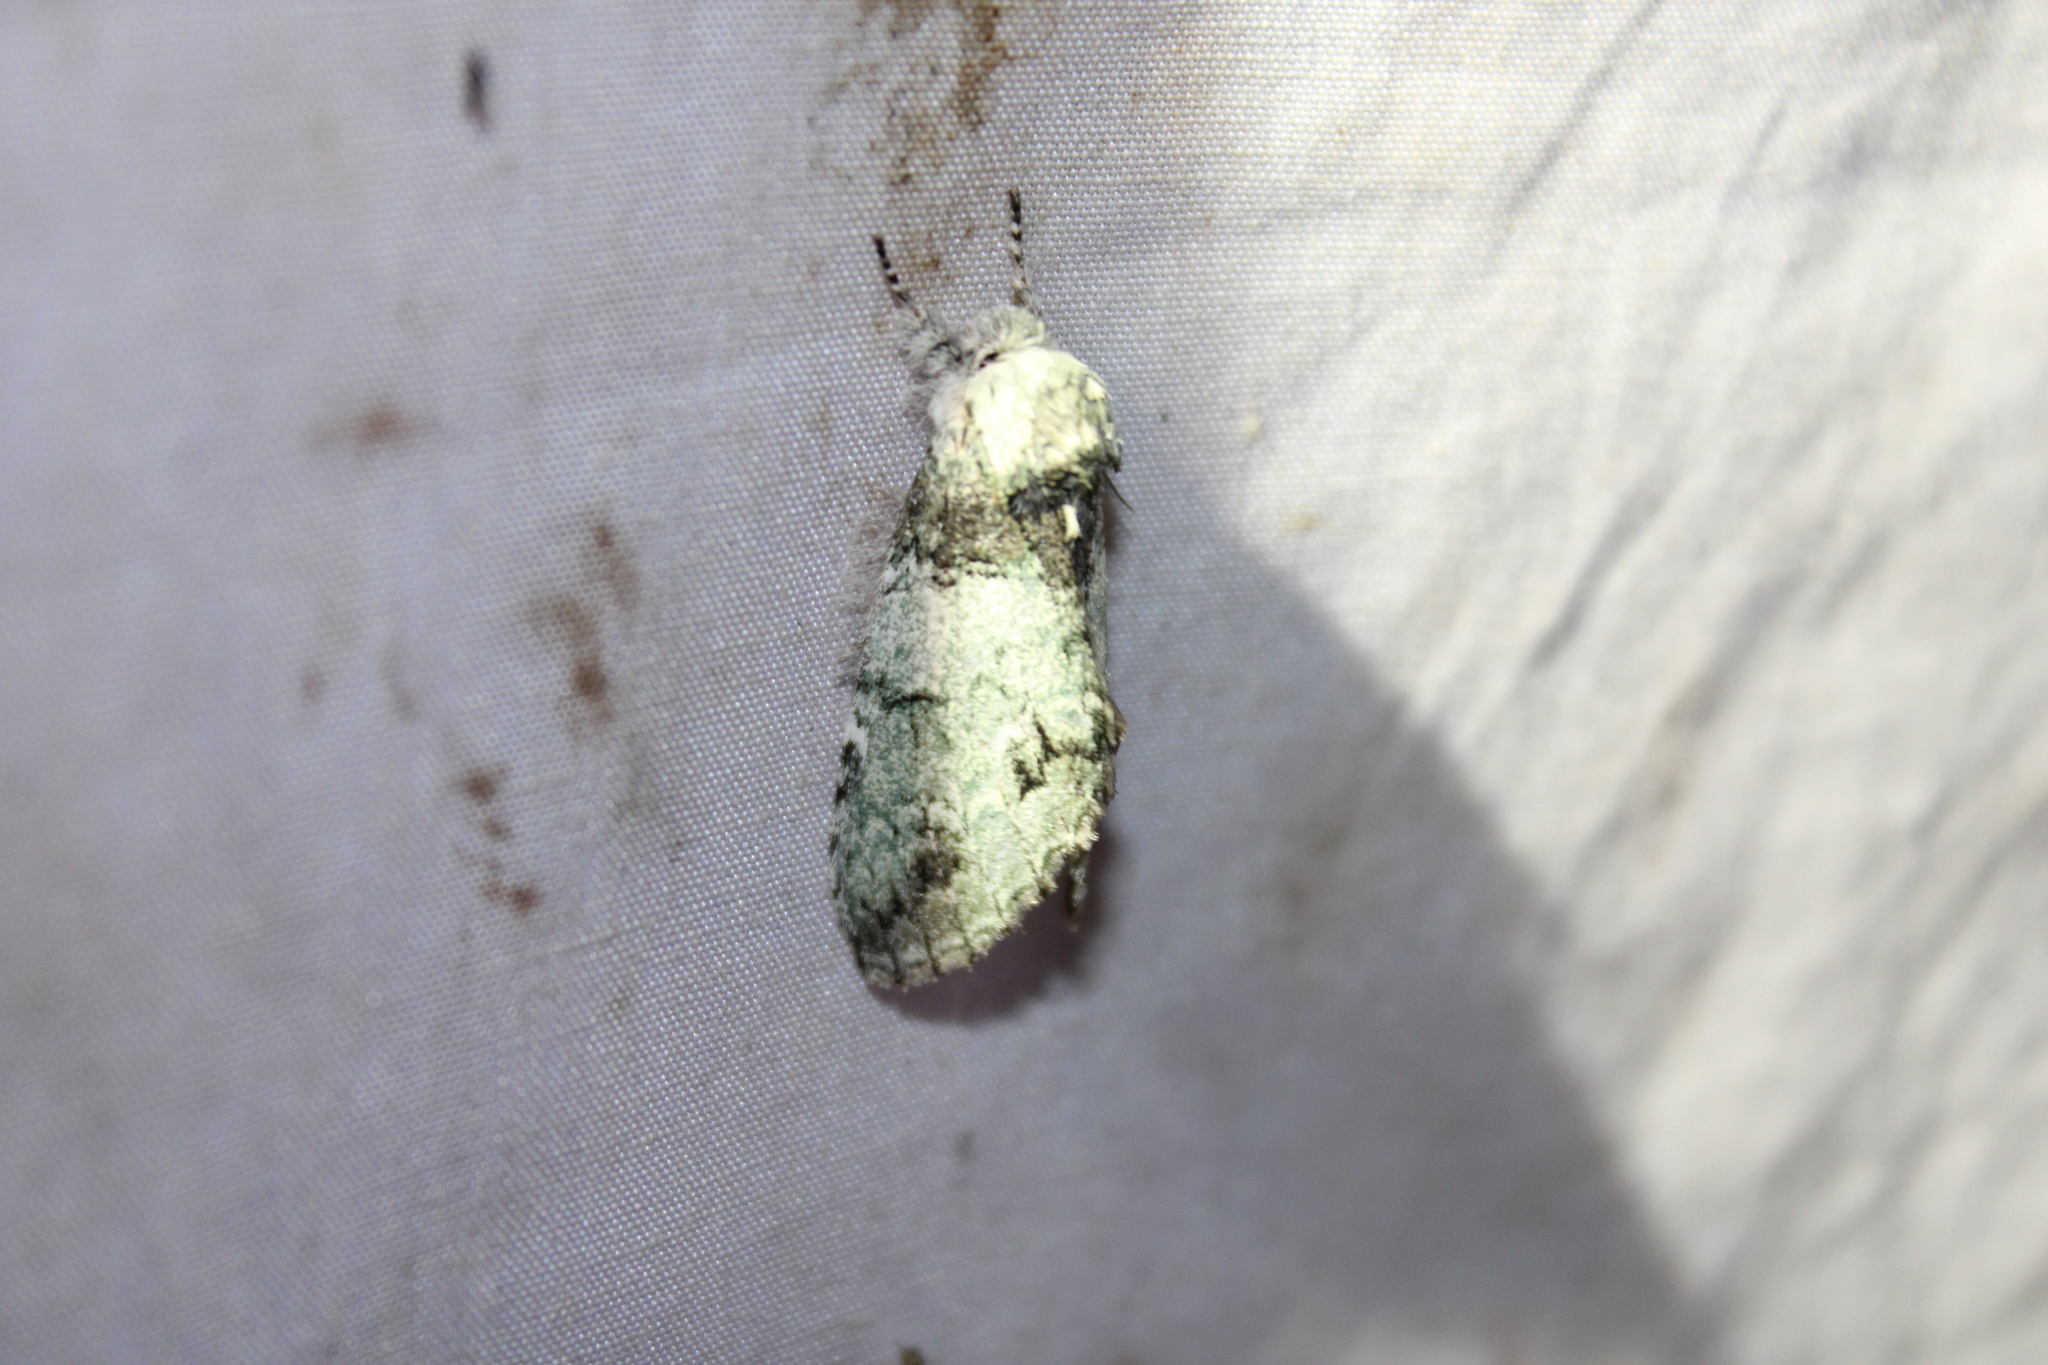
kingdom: Animalia
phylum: Arthropoda
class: Insecta
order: Lepidoptera
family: Notodontidae
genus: Macrurocampa
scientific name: Macrurocampa marthesia
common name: Mottled prominent
